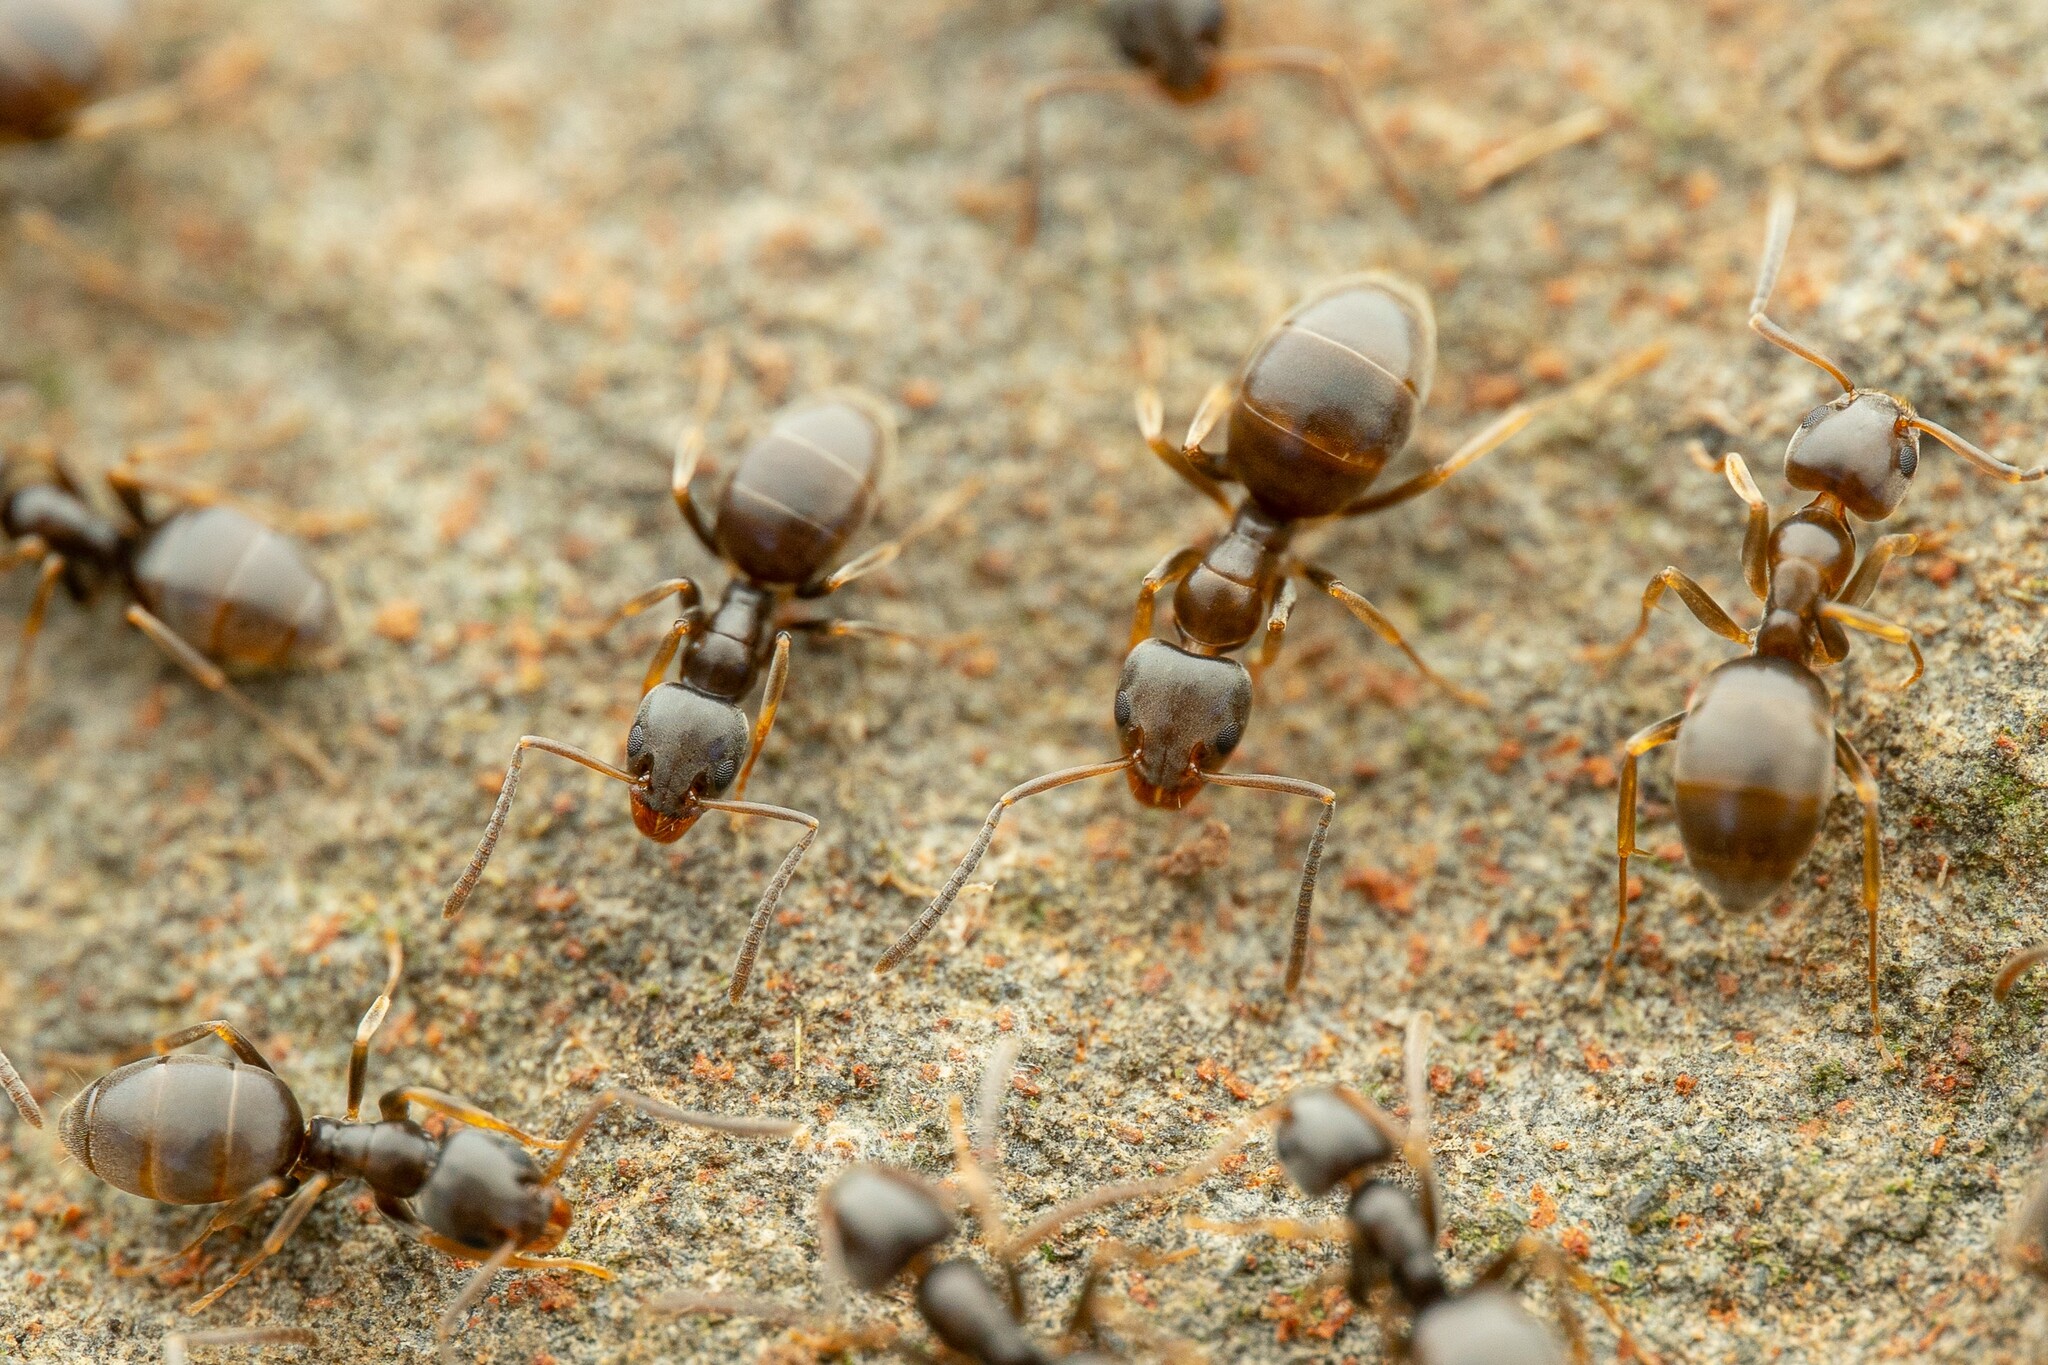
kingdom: Animalia
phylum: Arthropoda
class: Insecta
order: Hymenoptera
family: Formicidae
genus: Tapinoma
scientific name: Tapinoma sessile
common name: Odorous house ant
